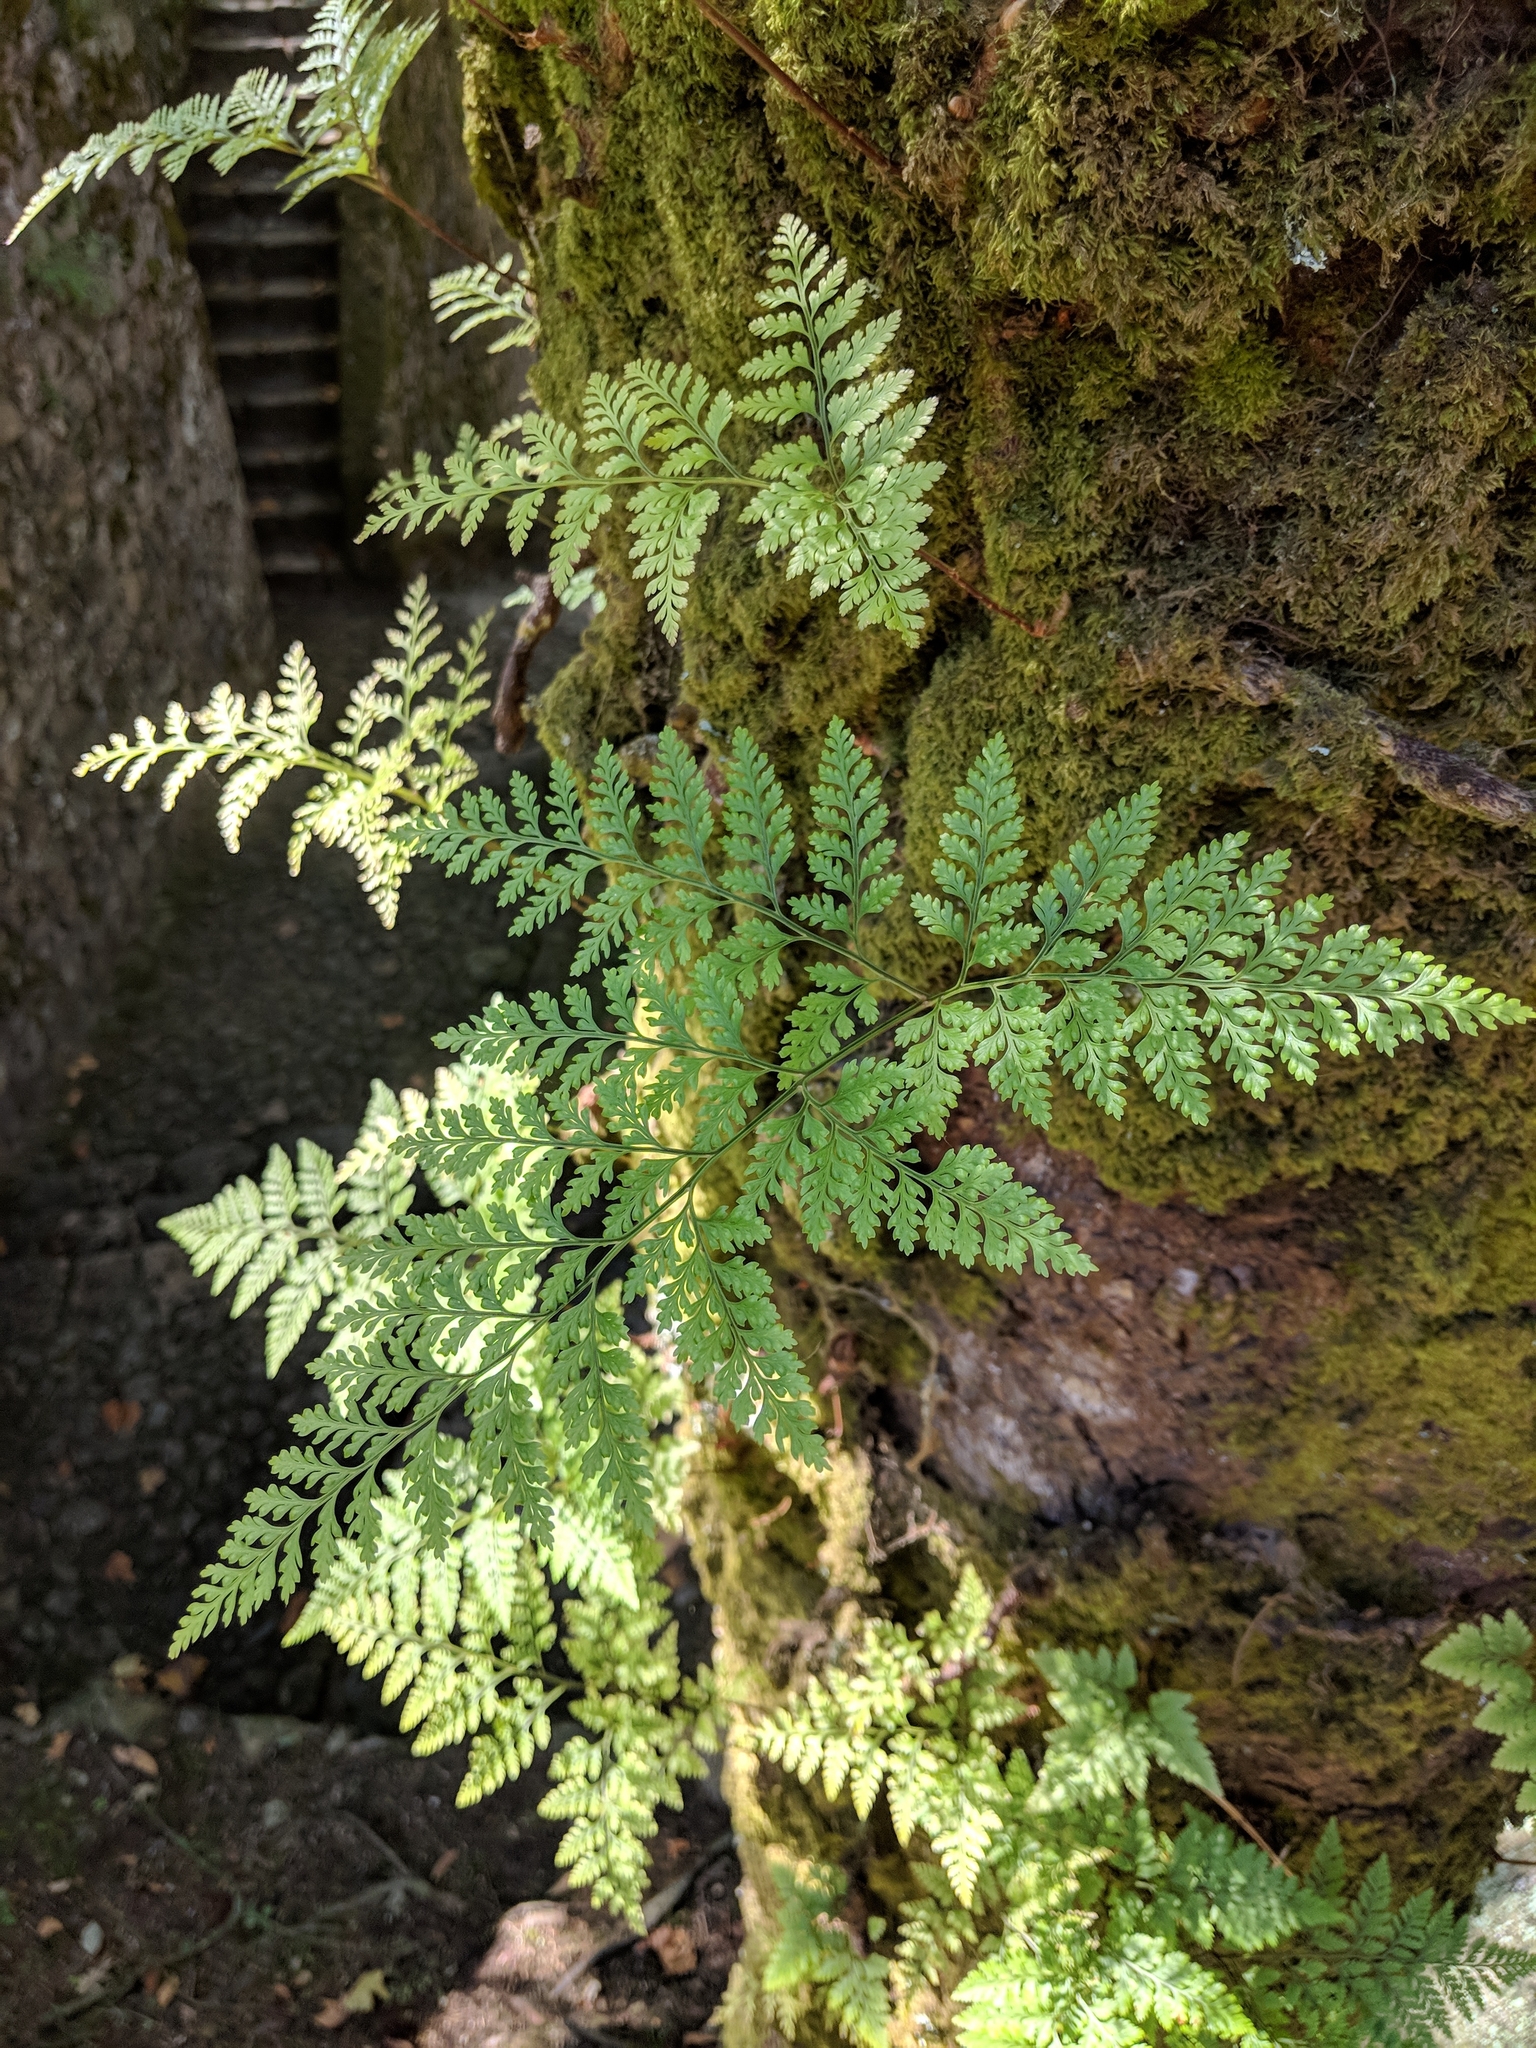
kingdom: Plantae
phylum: Tracheophyta
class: Polypodiopsida
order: Polypodiales
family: Davalliaceae
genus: Davallia
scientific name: Davallia canariensis
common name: Hare's-foot fern
